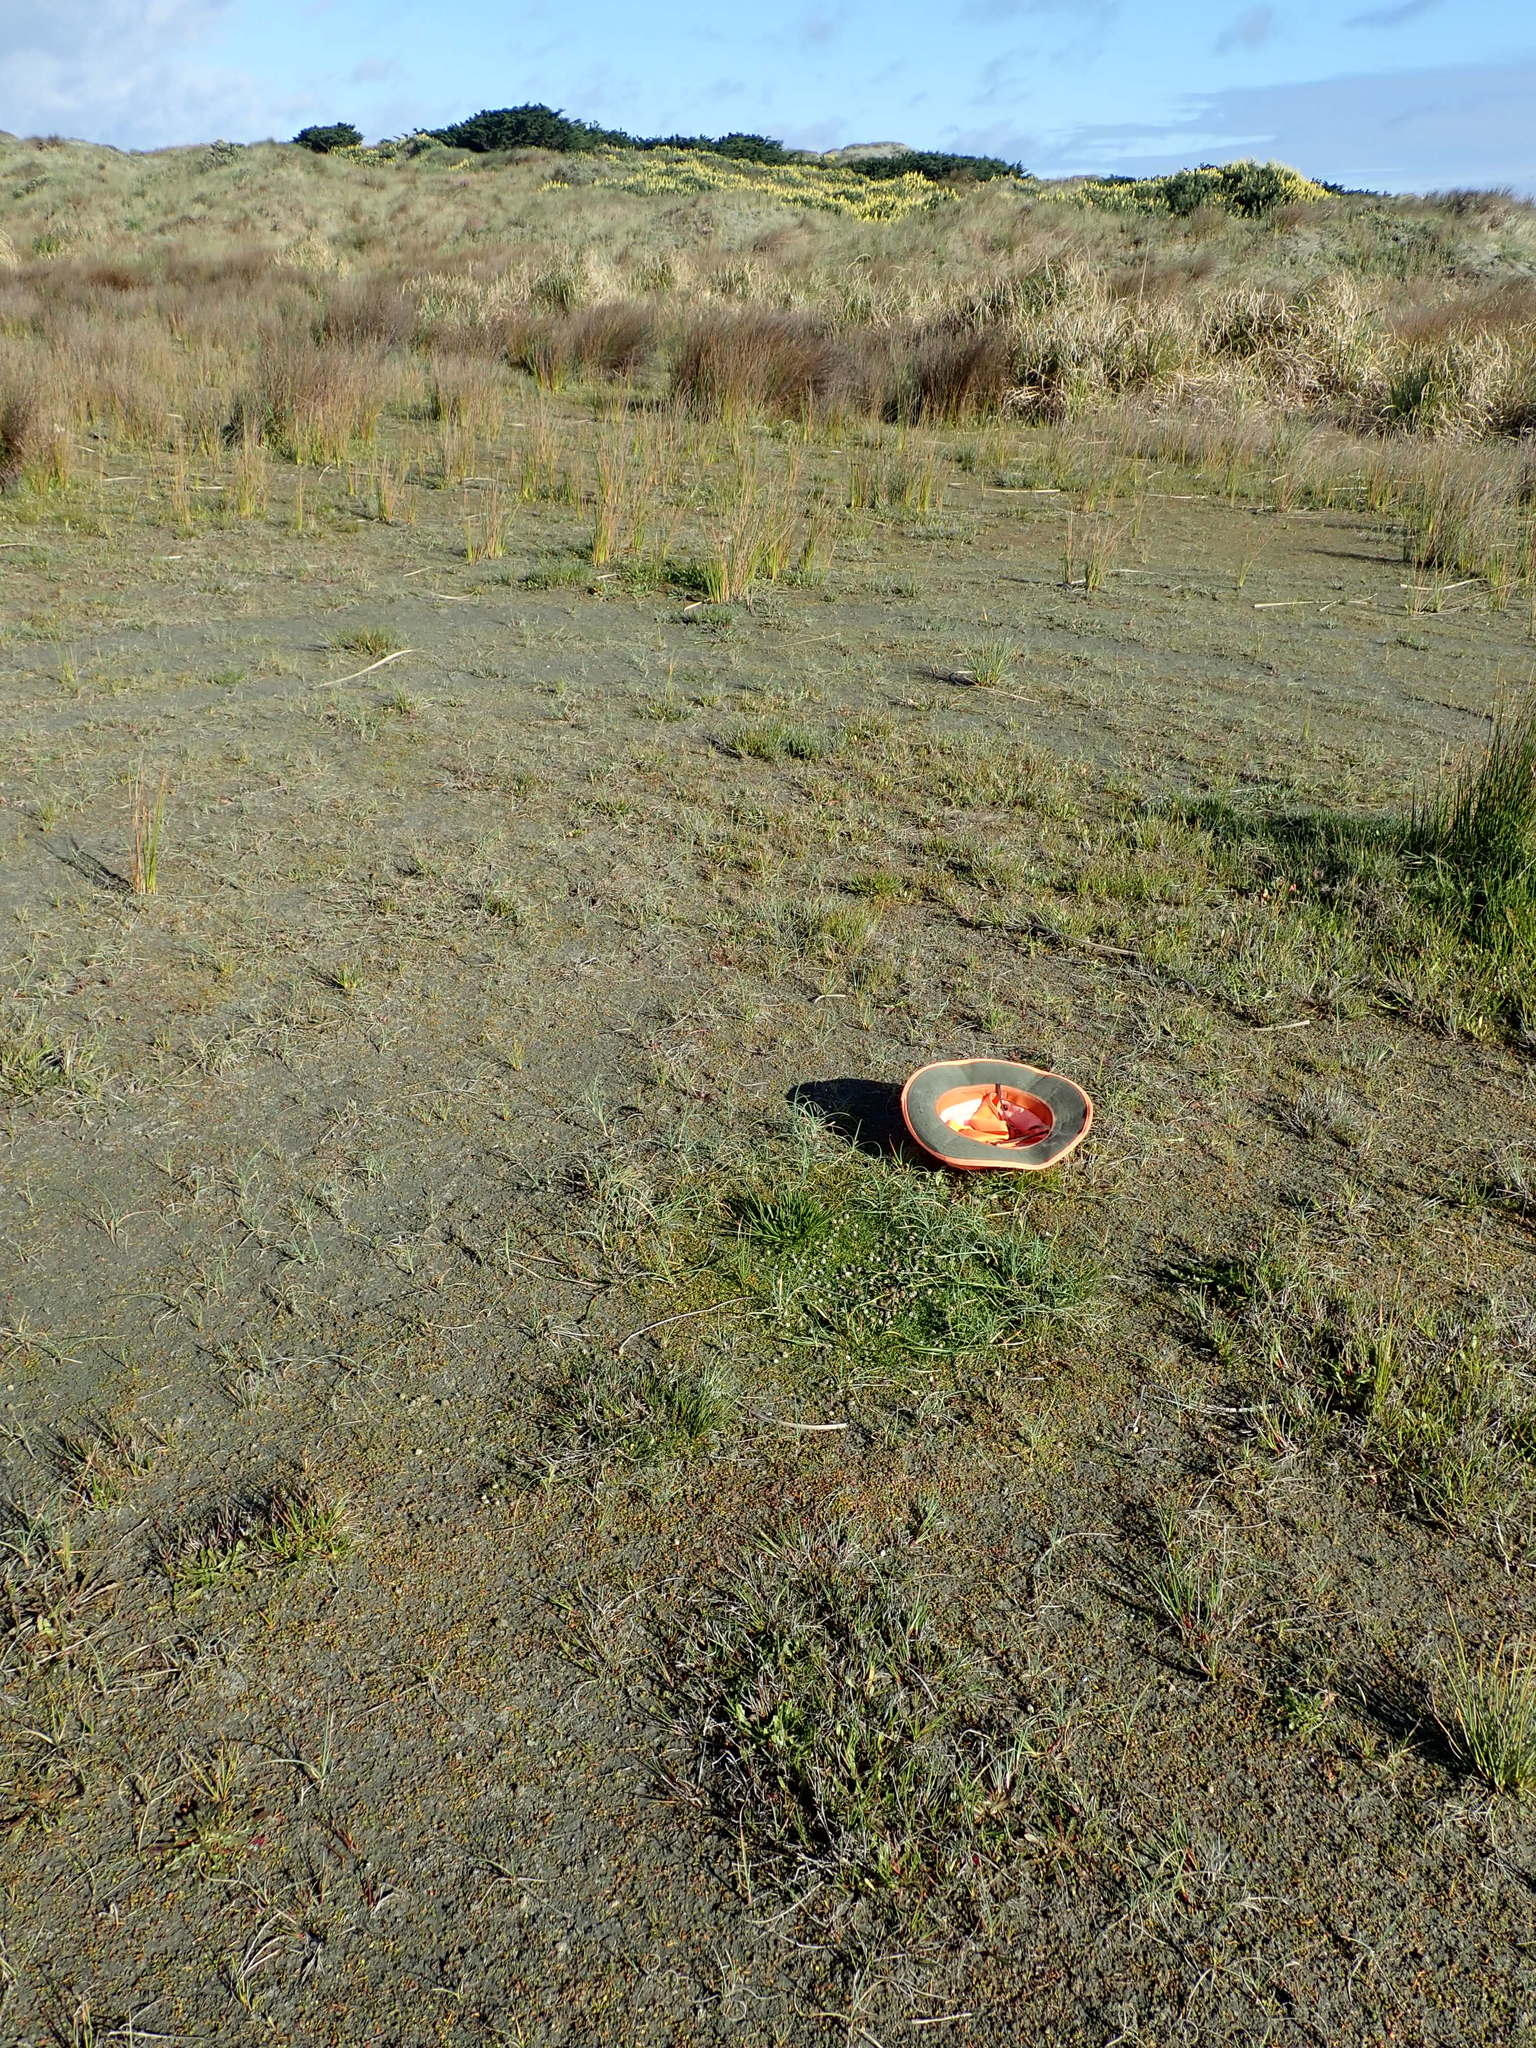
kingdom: Plantae
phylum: Tracheophyta
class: Liliopsida
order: Poales
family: Juncaceae
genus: Juncus
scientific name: Juncus caespiticius
